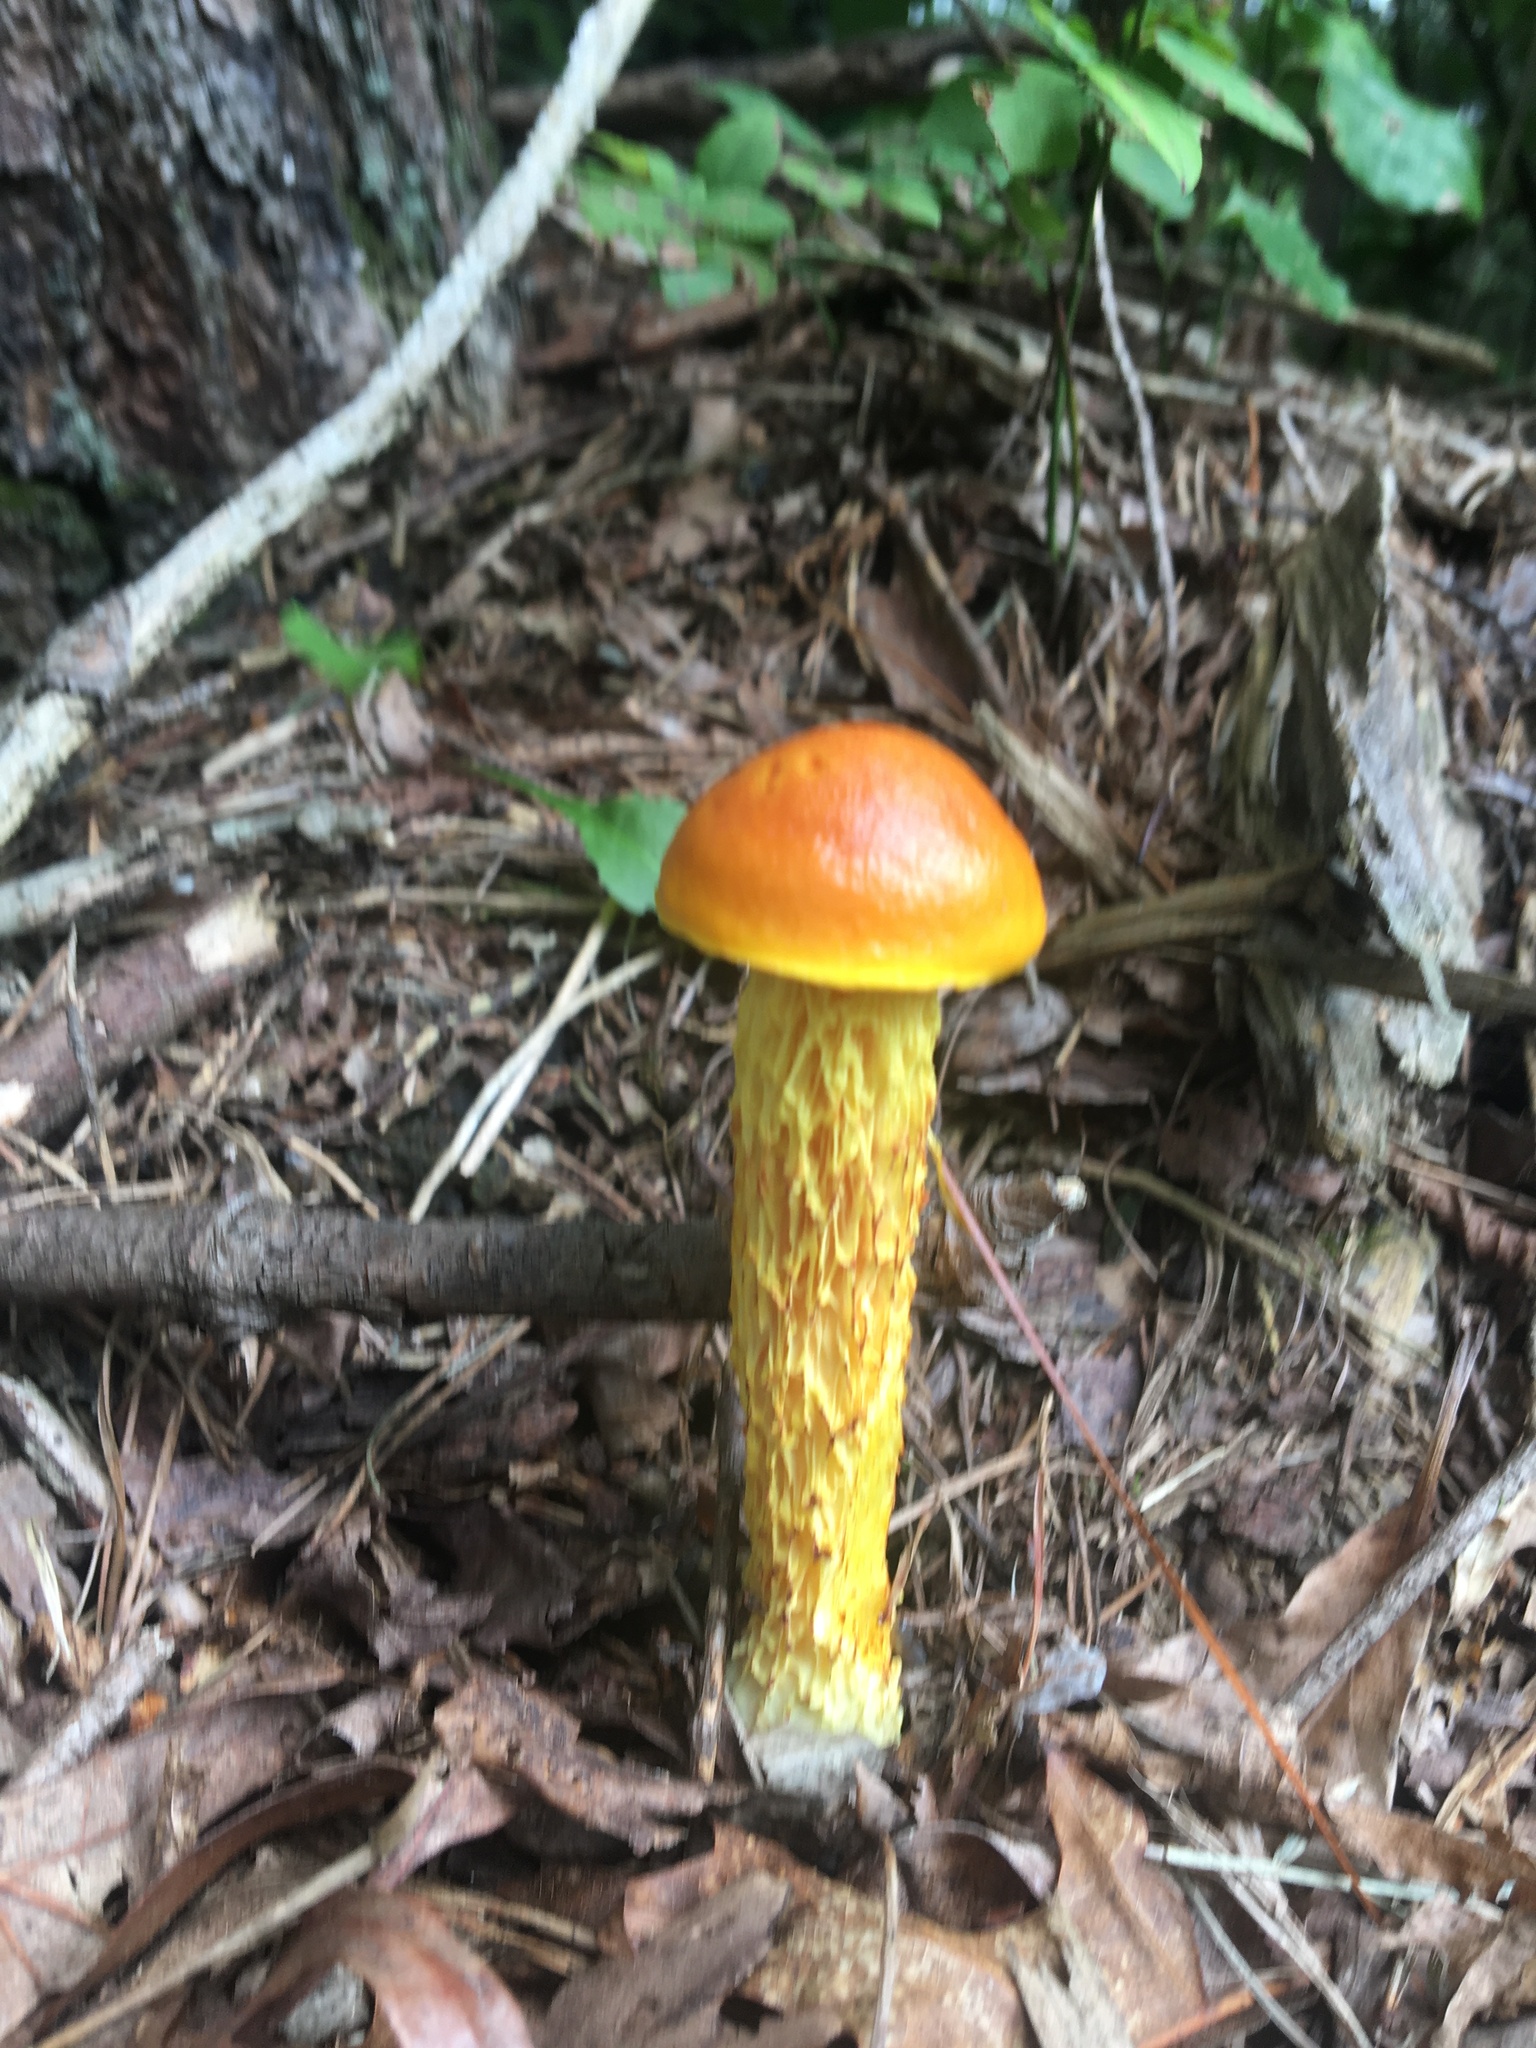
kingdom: Fungi
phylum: Basidiomycota
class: Agaricomycetes
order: Boletales
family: Boletaceae
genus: Aureoboletus
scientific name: Aureoboletus betula
